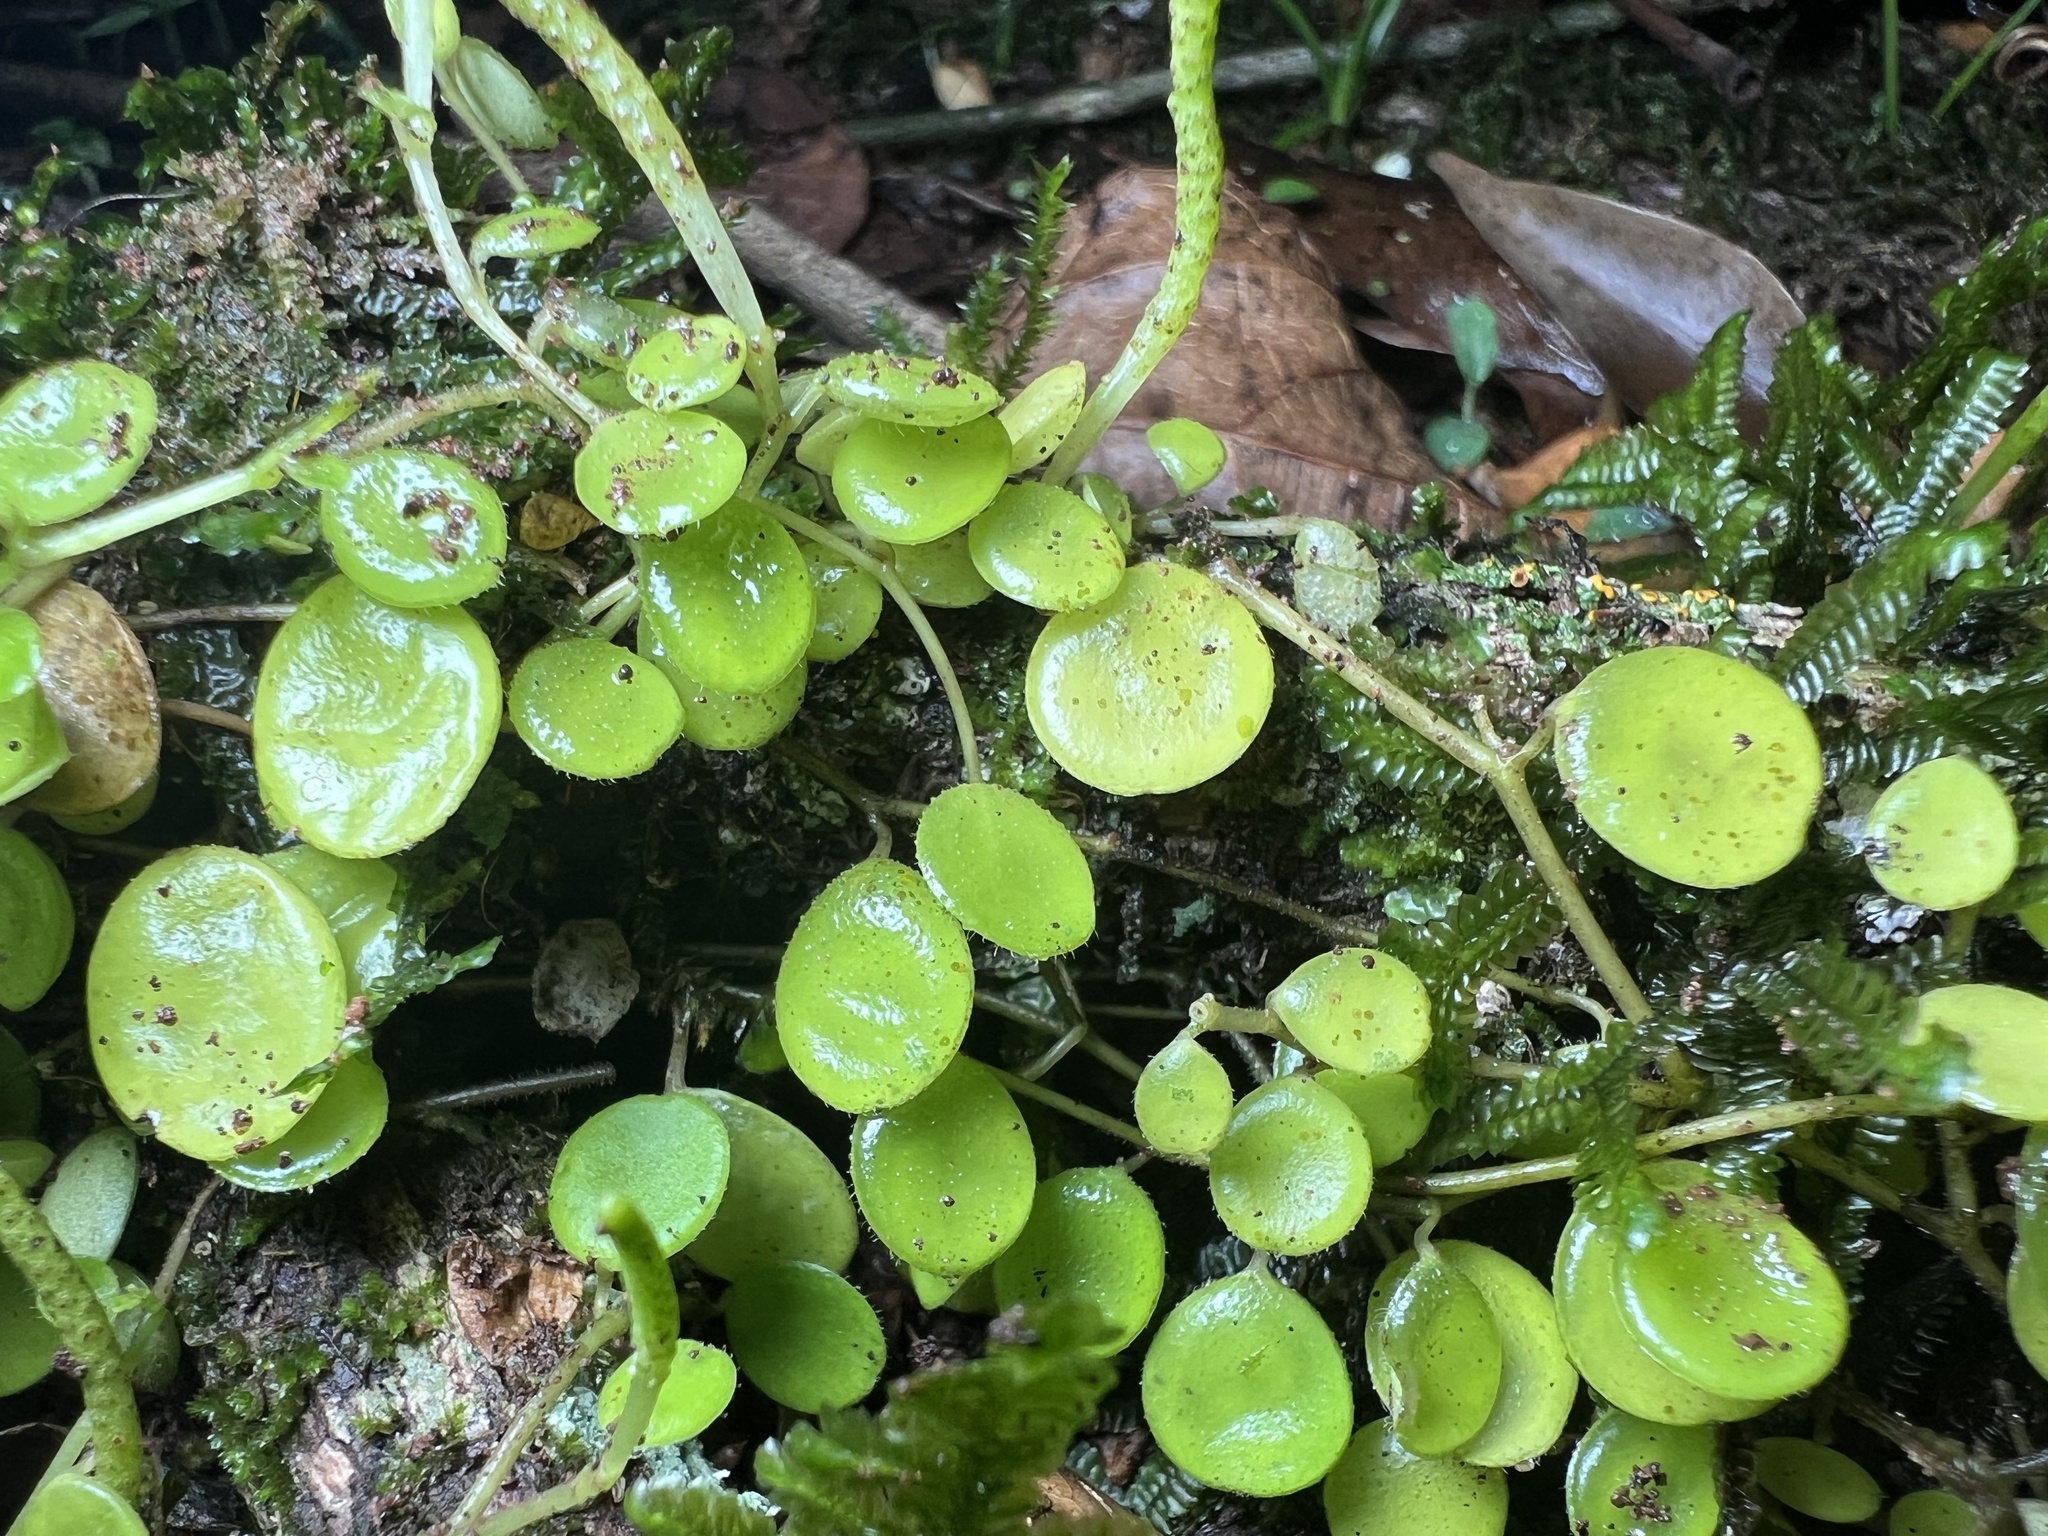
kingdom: Plantae
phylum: Tracheophyta
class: Magnoliopsida
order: Piperales
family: Piperaceae
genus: Peperomia
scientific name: Peperomia rotundifolia
